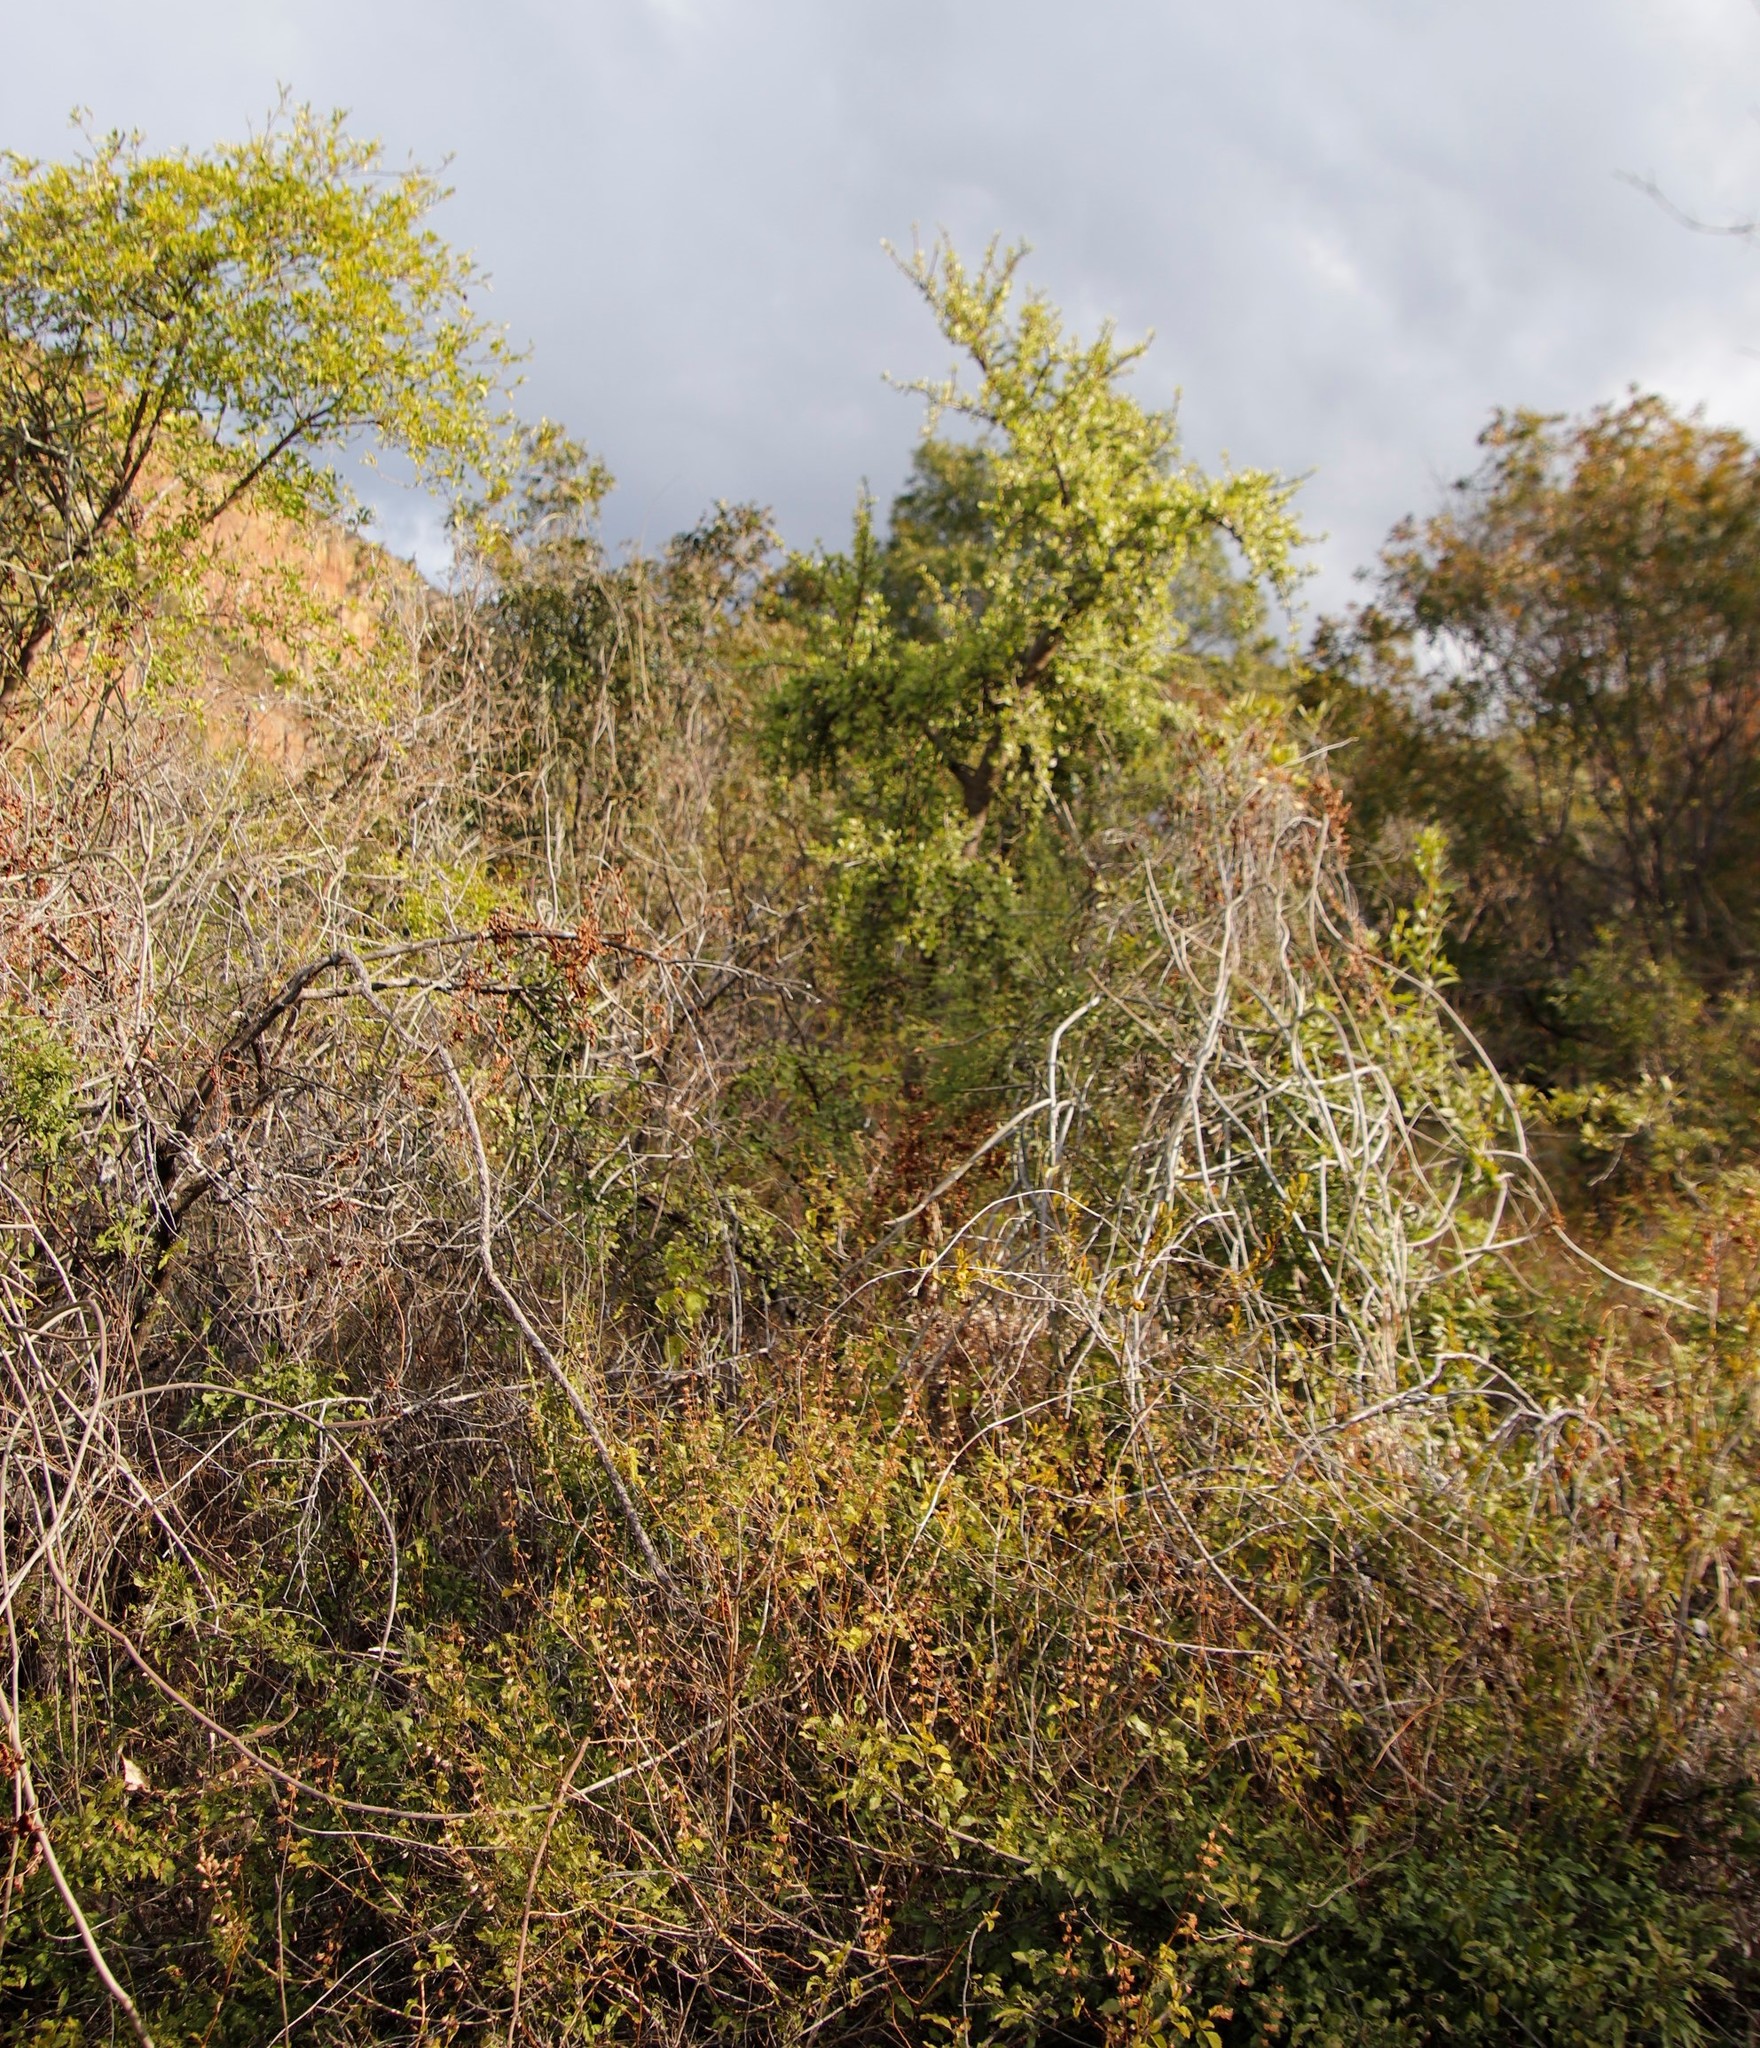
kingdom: Plantae
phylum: Tracheophyta
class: Magnoliopsida
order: Caryophyllales
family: Didiereaceae
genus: Portulacaria
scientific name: Portulacaria afra
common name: Elephant-bush
